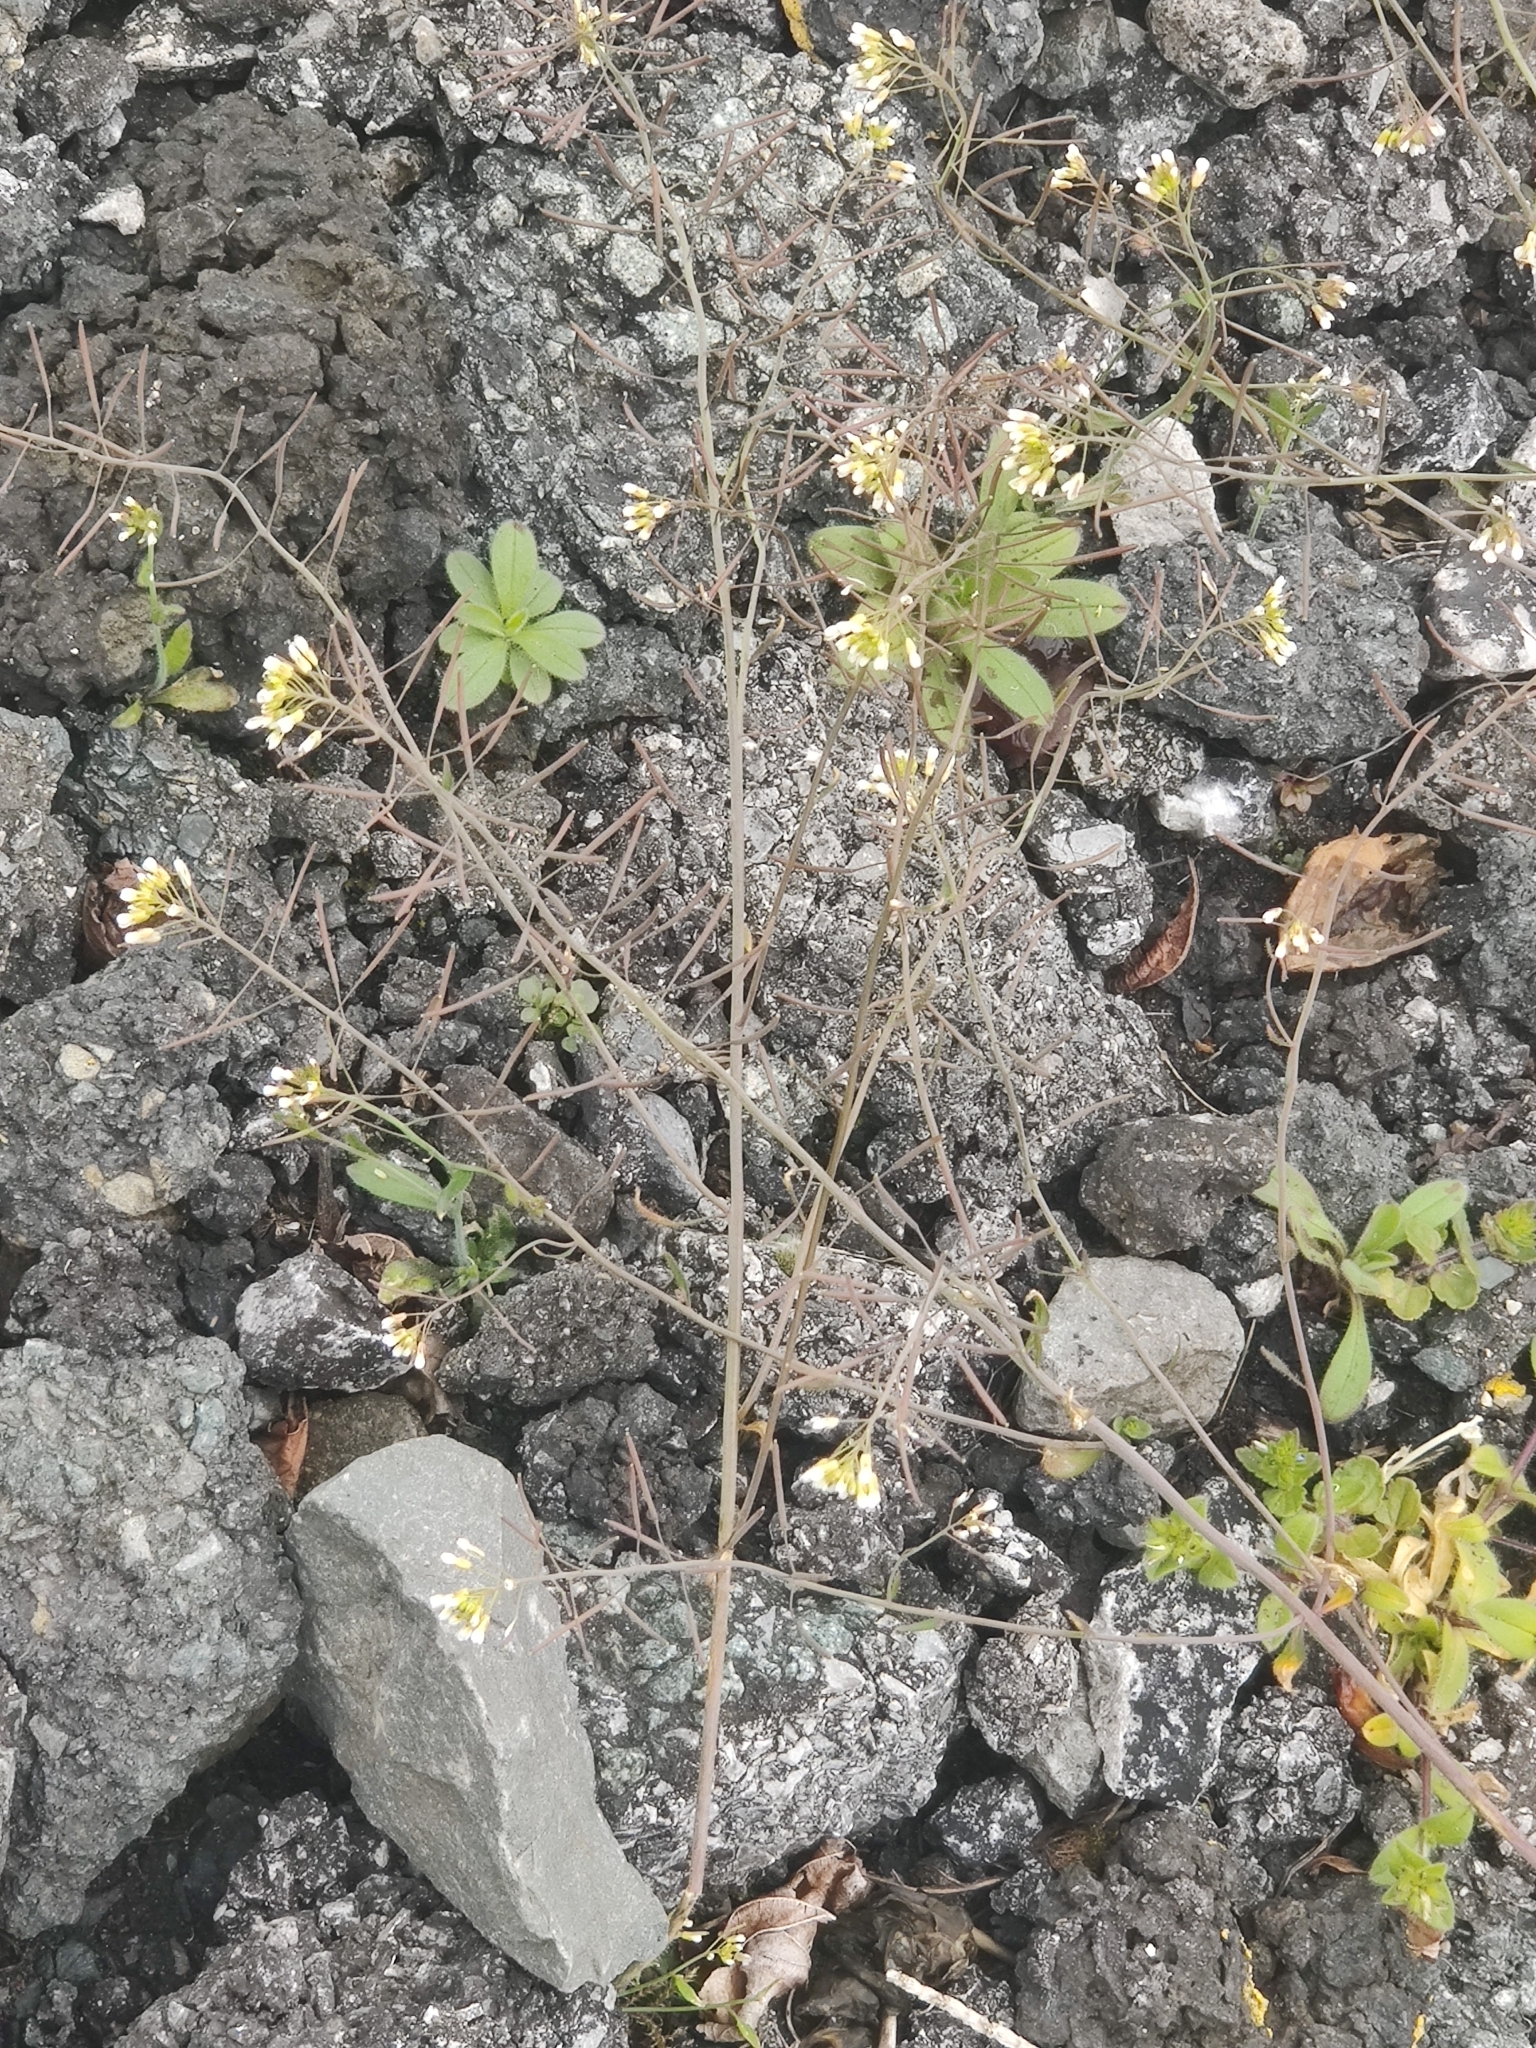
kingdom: Plantae
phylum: Tracheophyta
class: Magnoliopsida
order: Brassicales
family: Brassicaceae
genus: Arabidopsis
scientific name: Arabidopsis thaliana
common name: Thale cress
